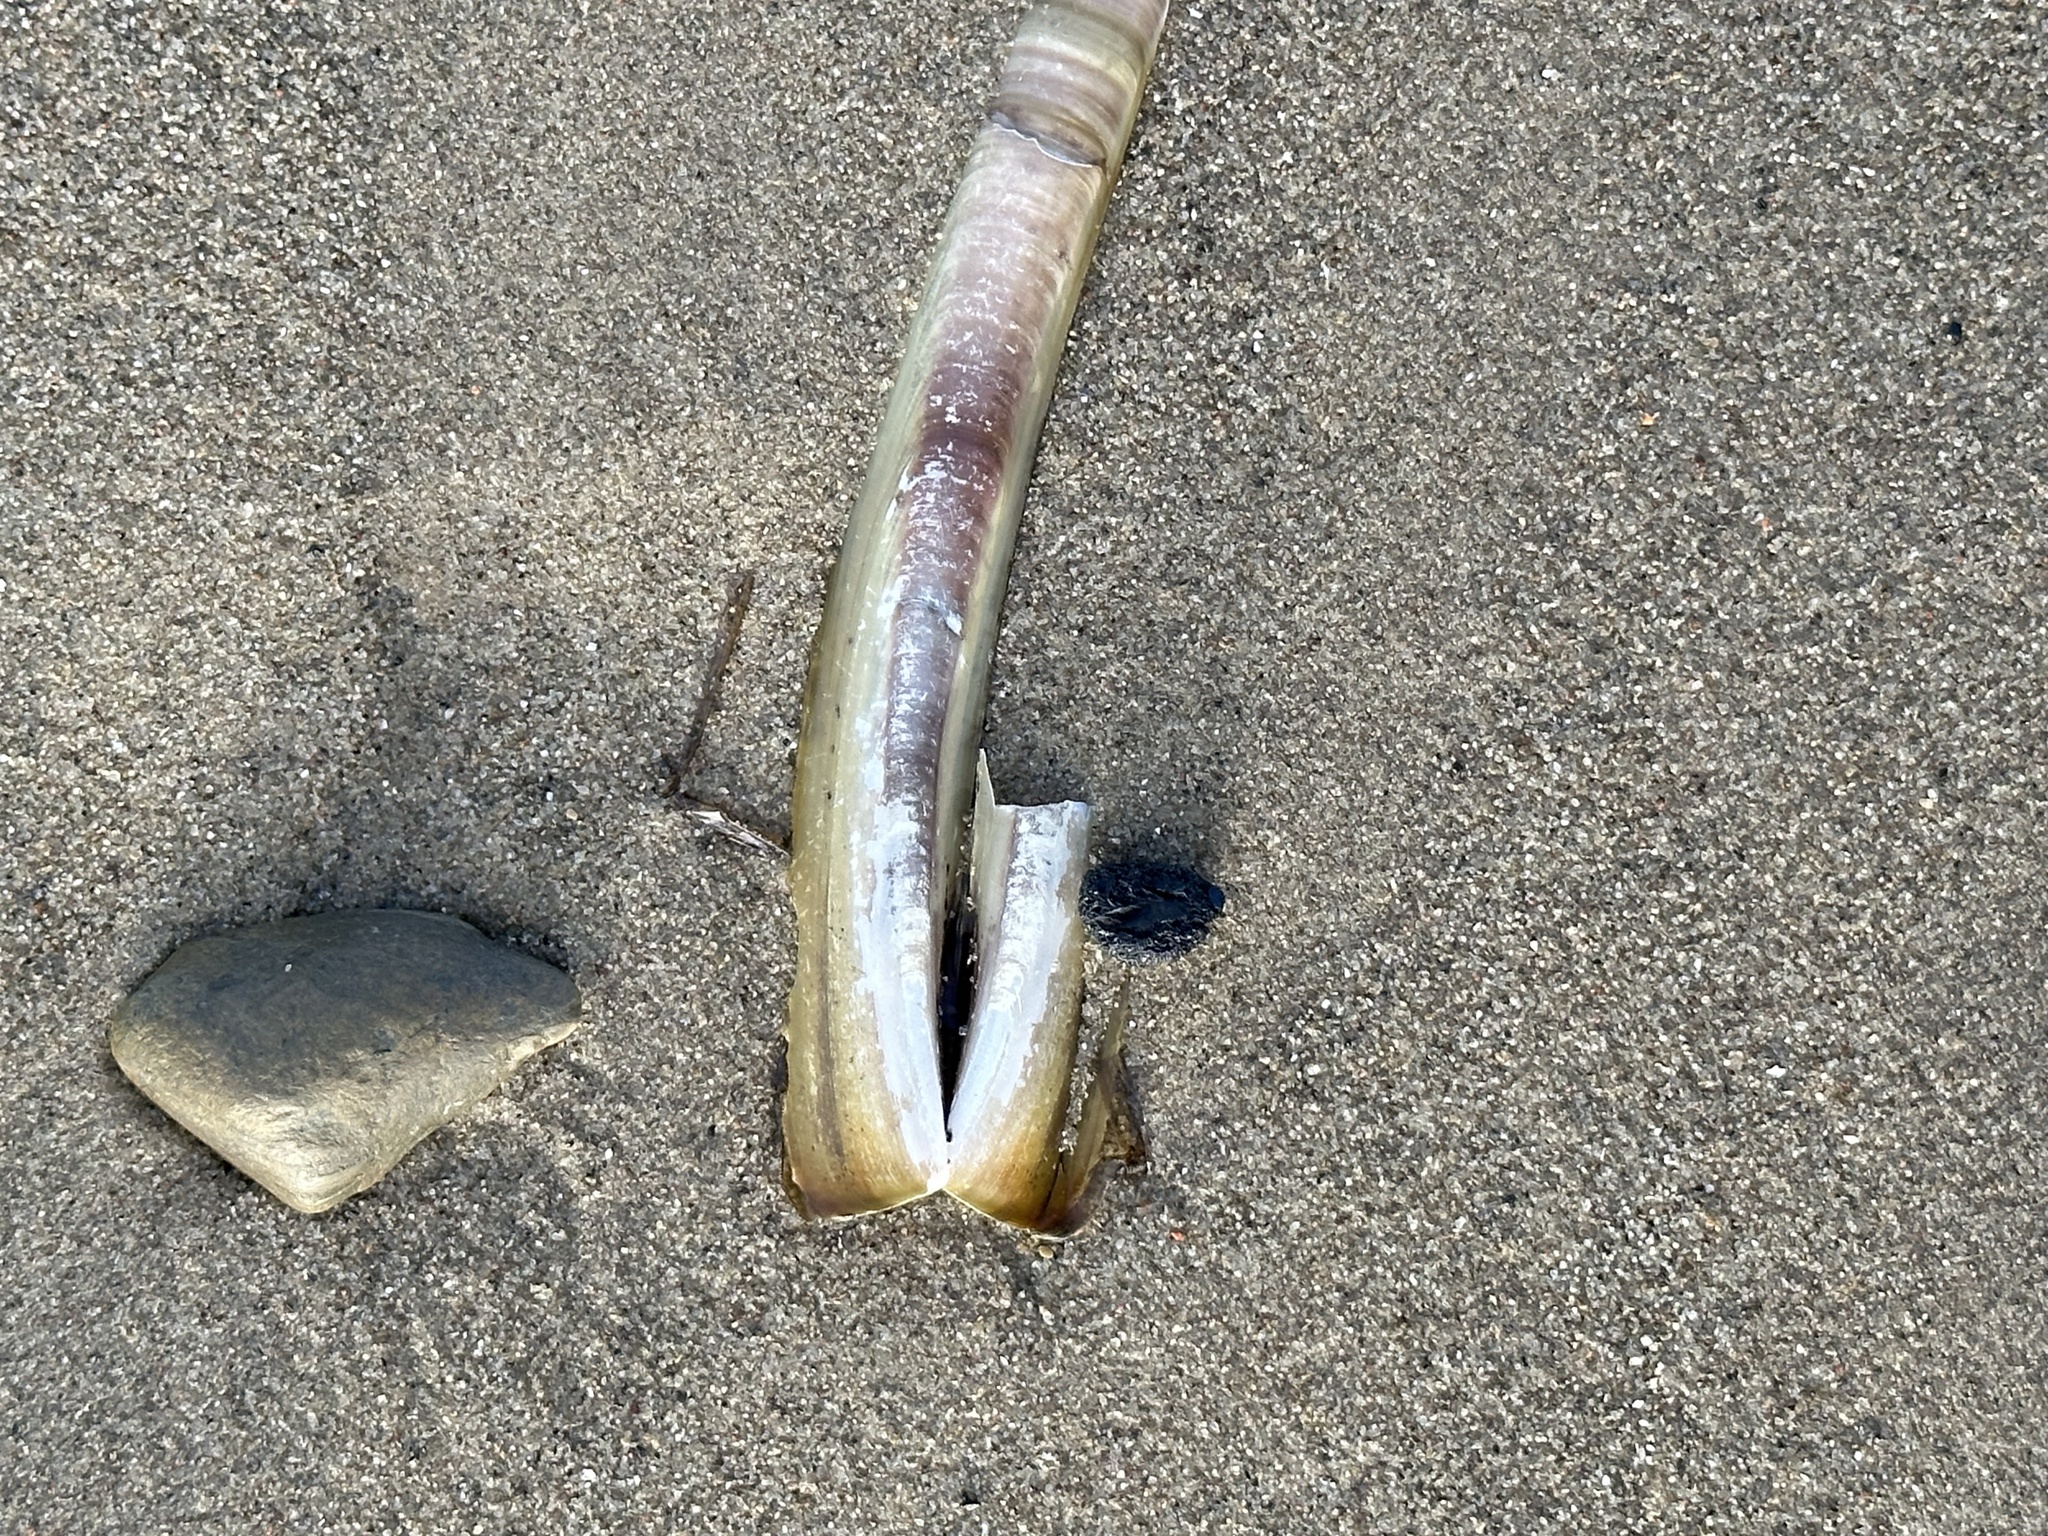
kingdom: Animalia
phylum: Mollusca
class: Bivalvia
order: Adapedonta
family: Pharidae
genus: Ensis
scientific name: Ensis leei
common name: American jack knife clam
